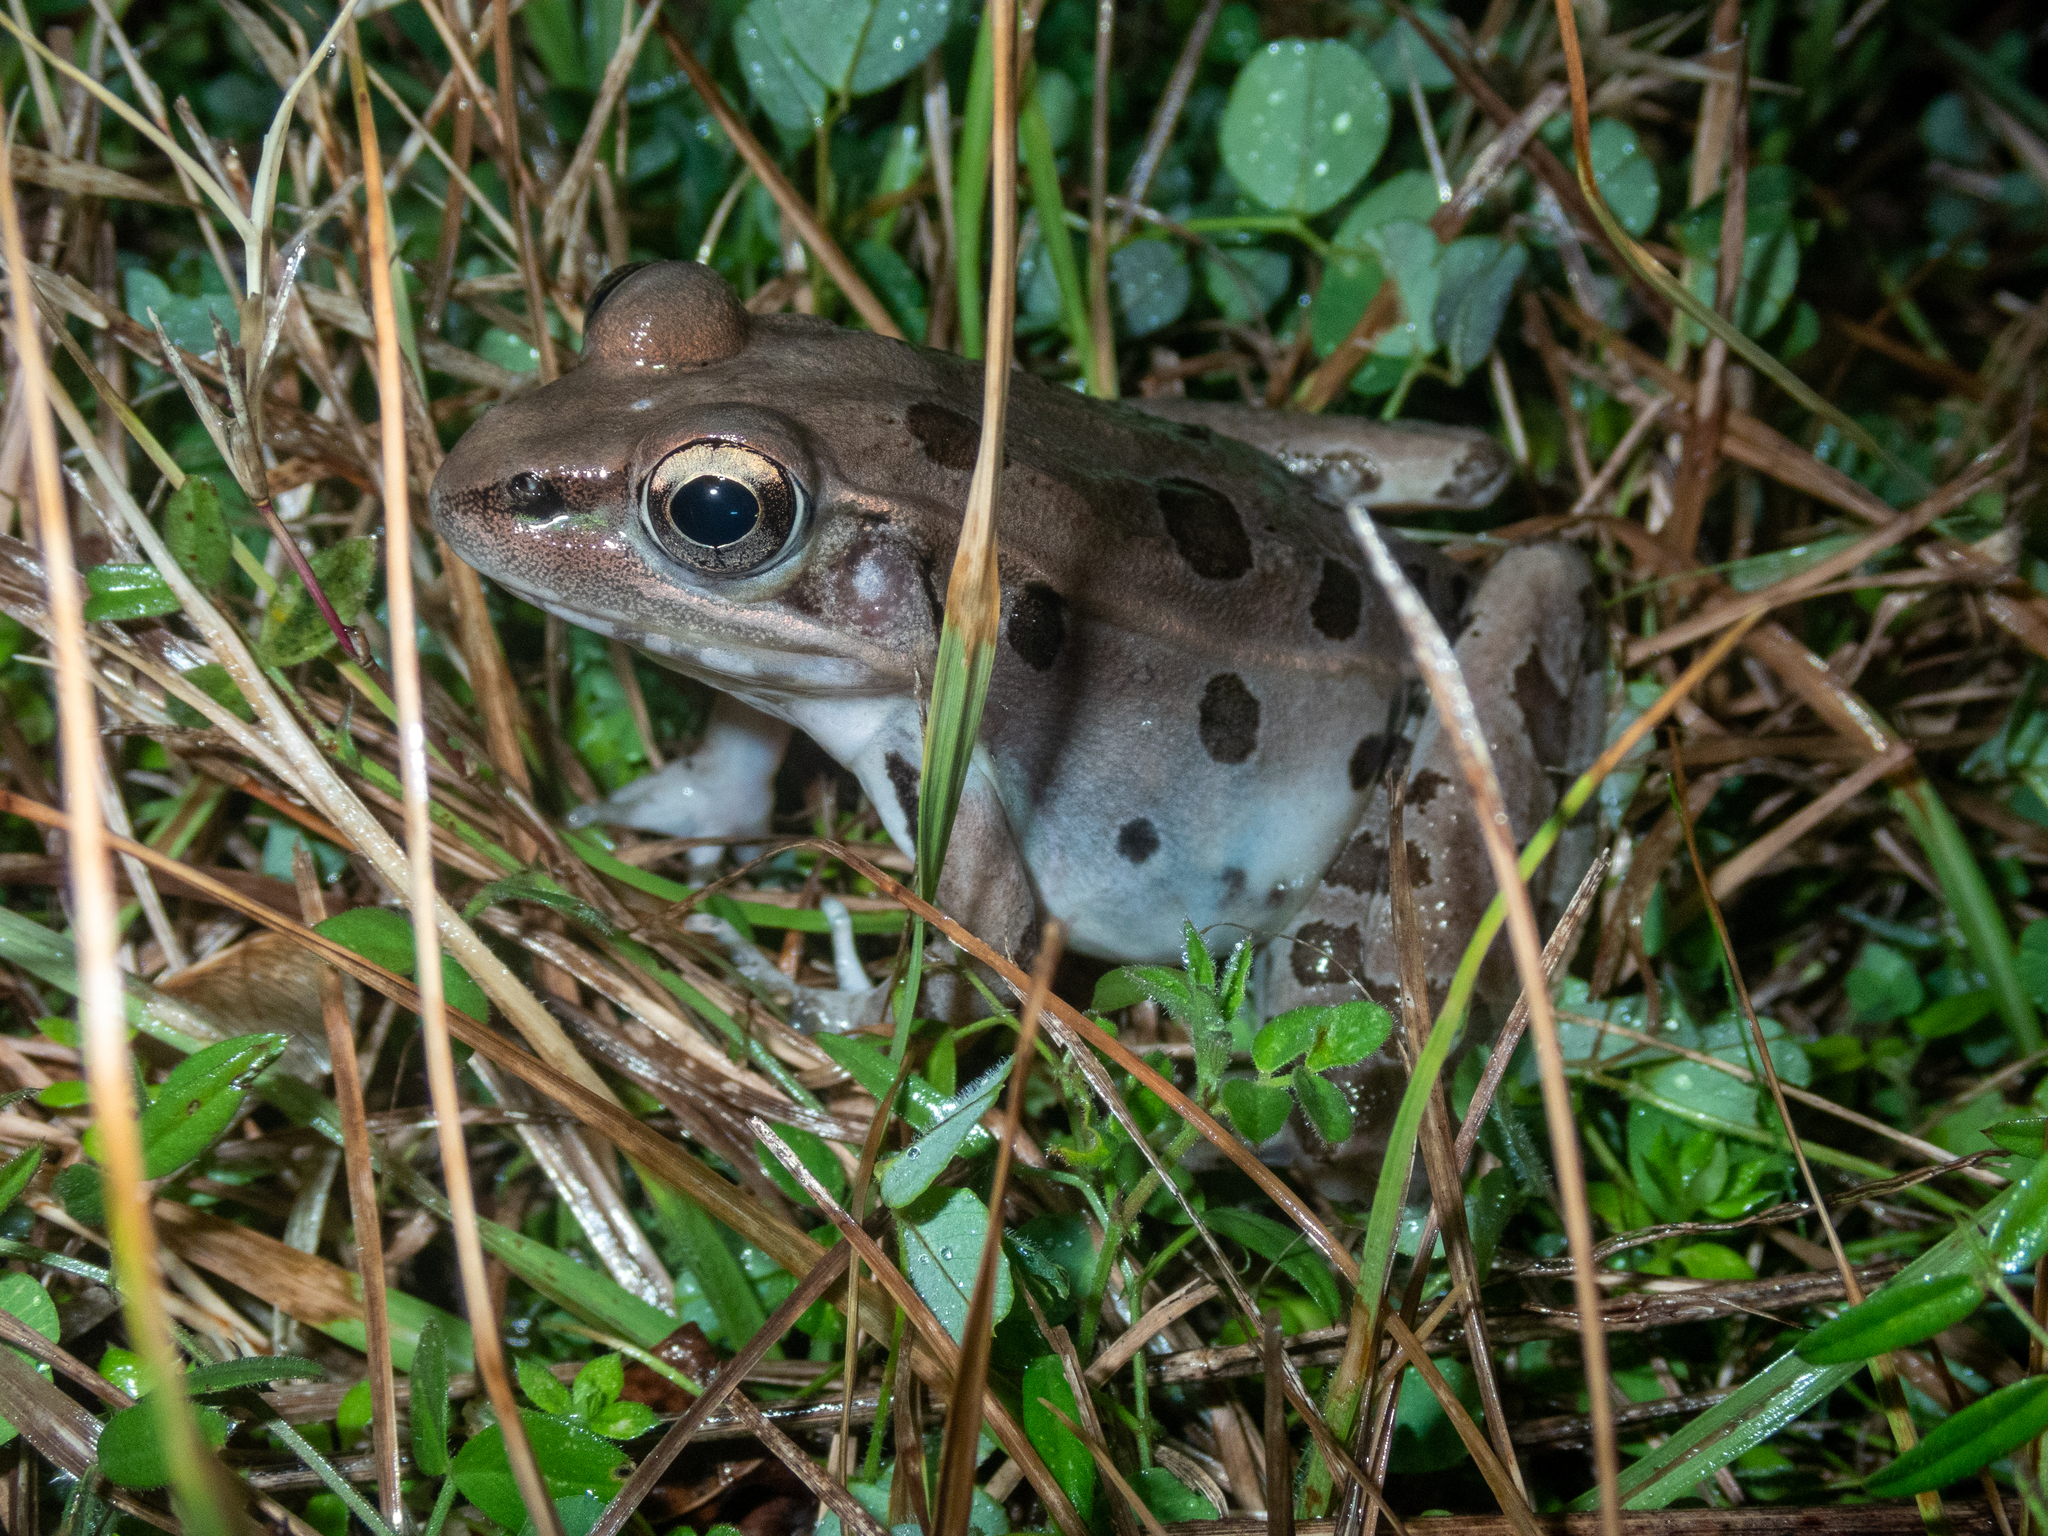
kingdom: Animalia
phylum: Chordata
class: Amphibia
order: Anura
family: Ranidae
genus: Lithobates
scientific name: Lithobates sphenocephalus
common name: Southern leopard frog
